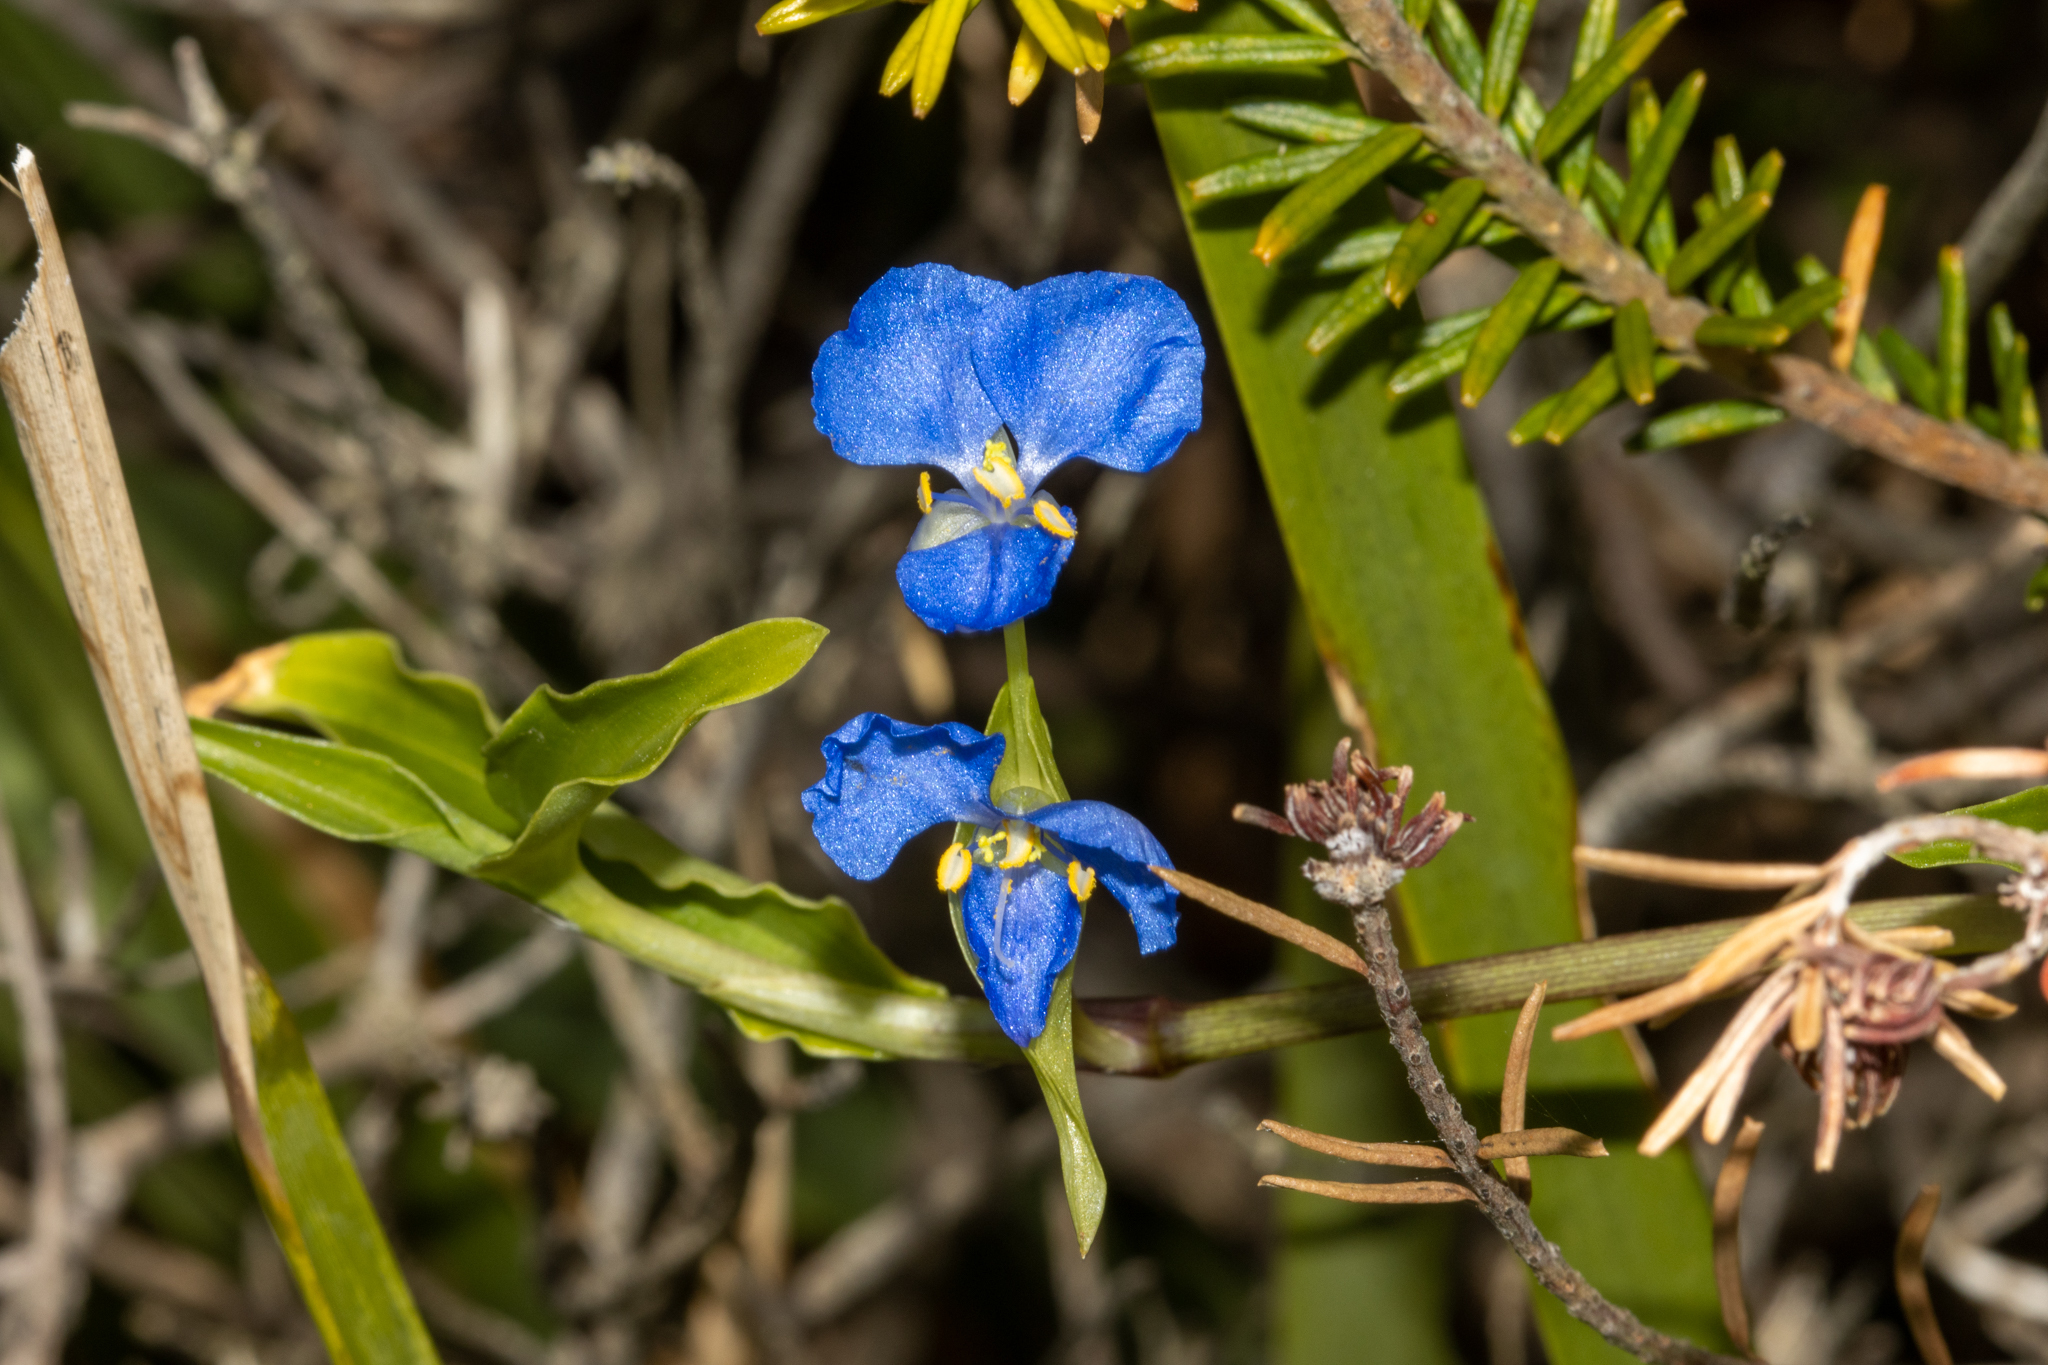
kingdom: Plantae
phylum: Tracheophyta
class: Liliopsida
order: Commelinales
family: Commelinaceae
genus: Commelina
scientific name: Commelina cyanea
